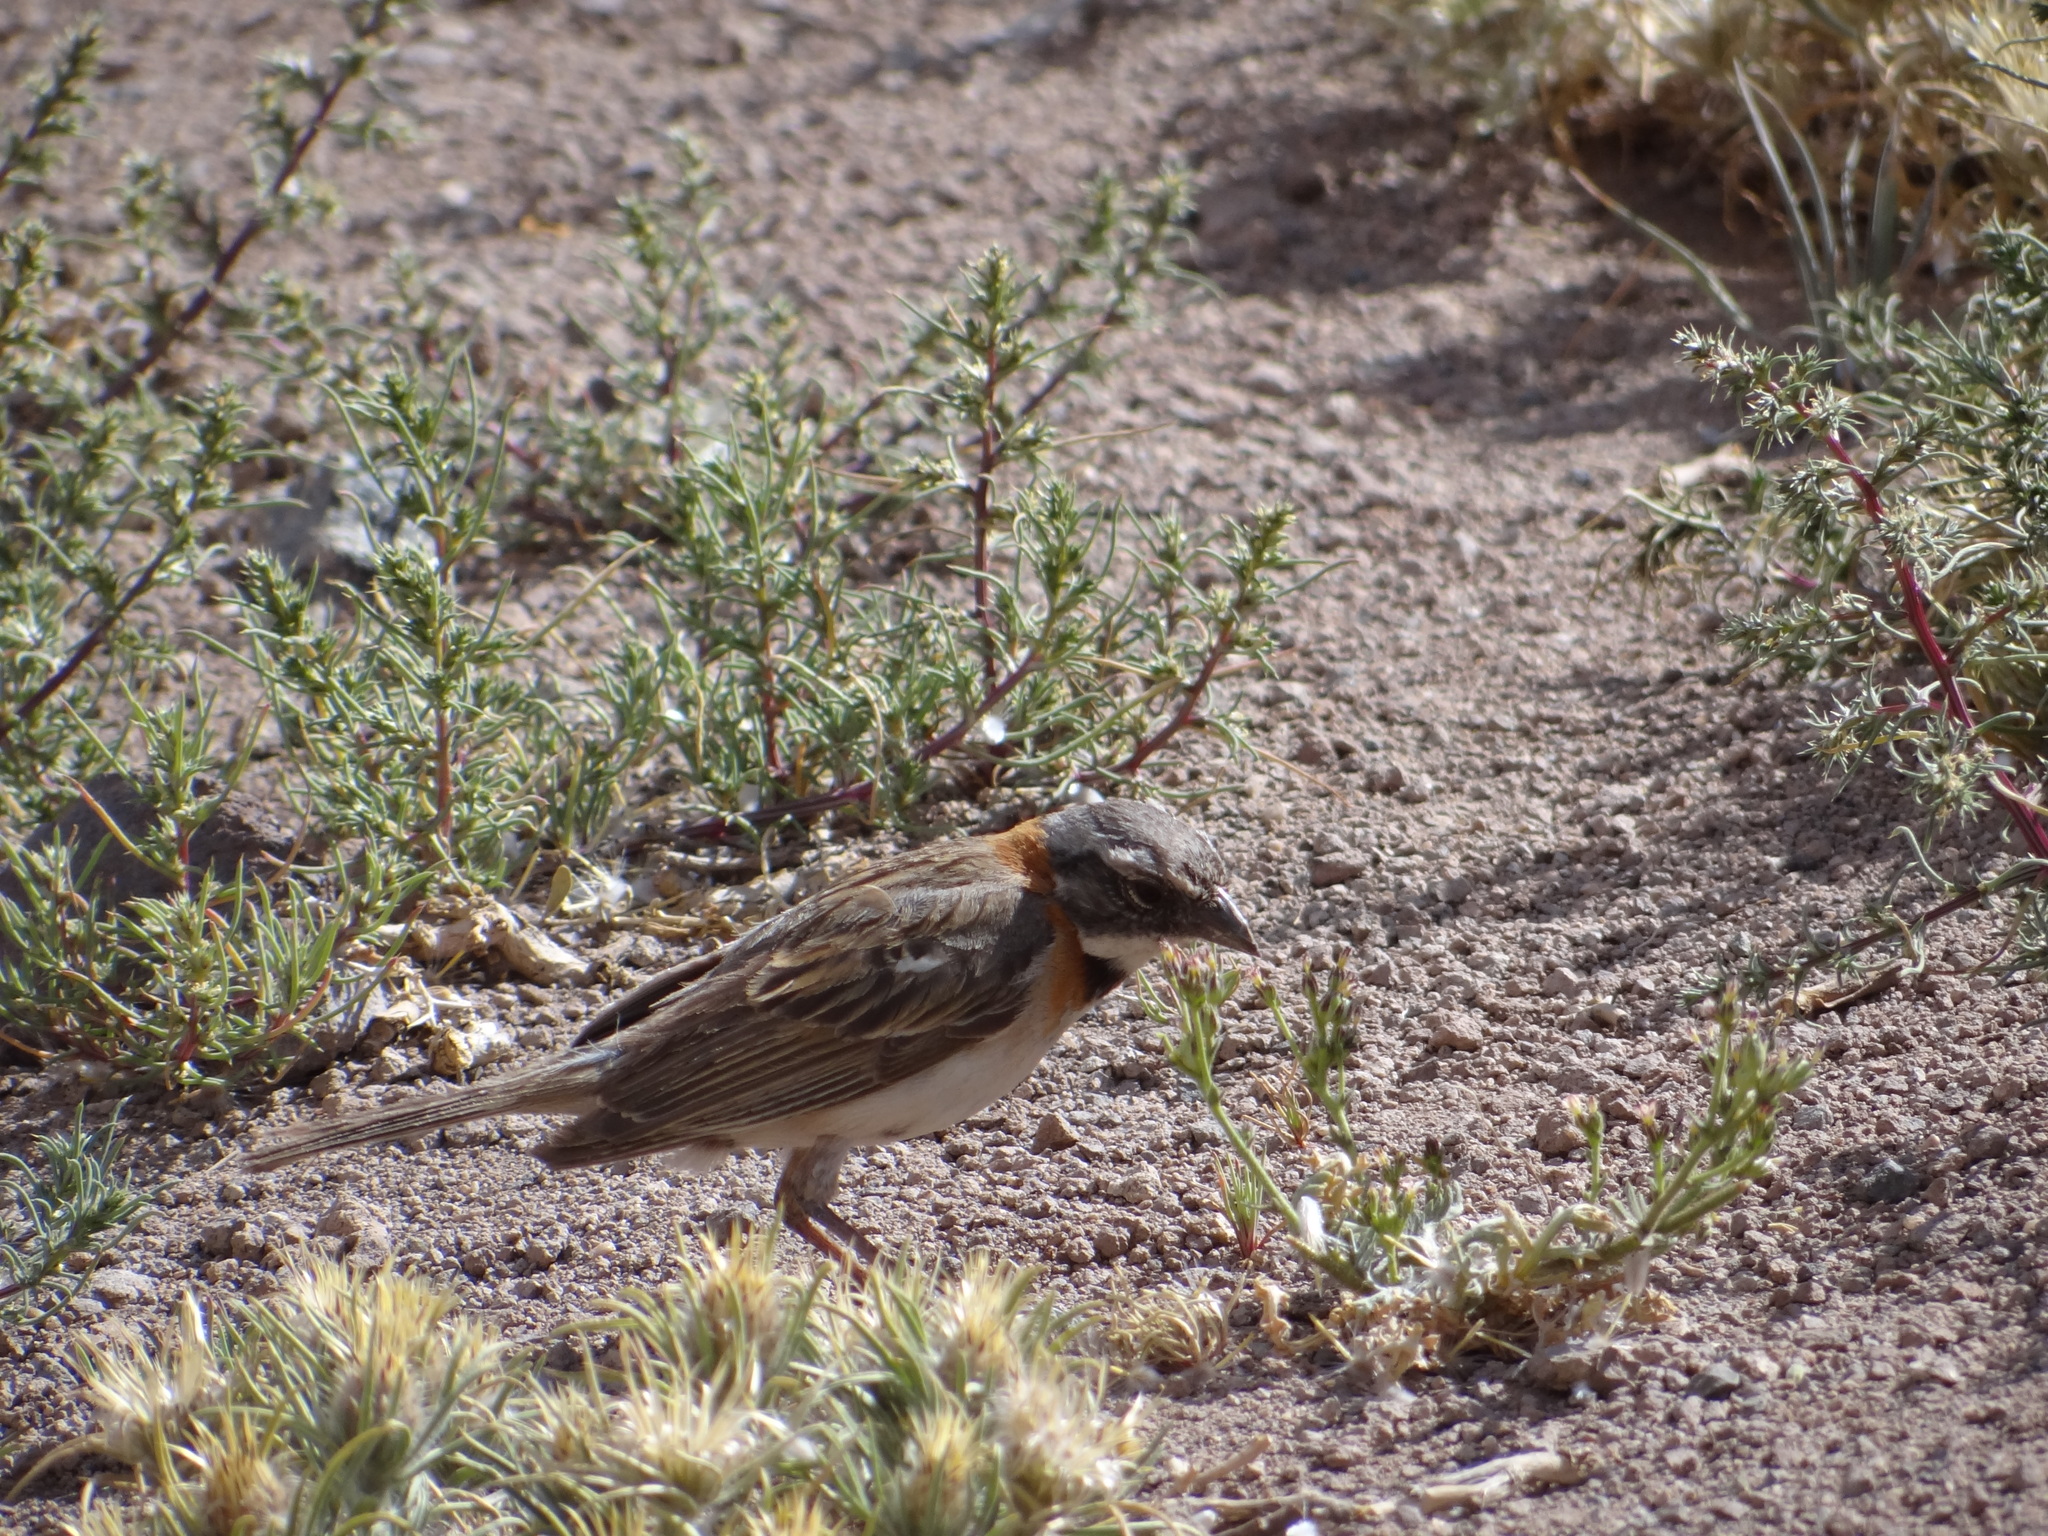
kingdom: Animalia
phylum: Chordata
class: Aves
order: Passeriformes
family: Passerellidae
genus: Zonotrichia
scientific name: Zonotrichia capensis
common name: Rufous-collared sparrow
